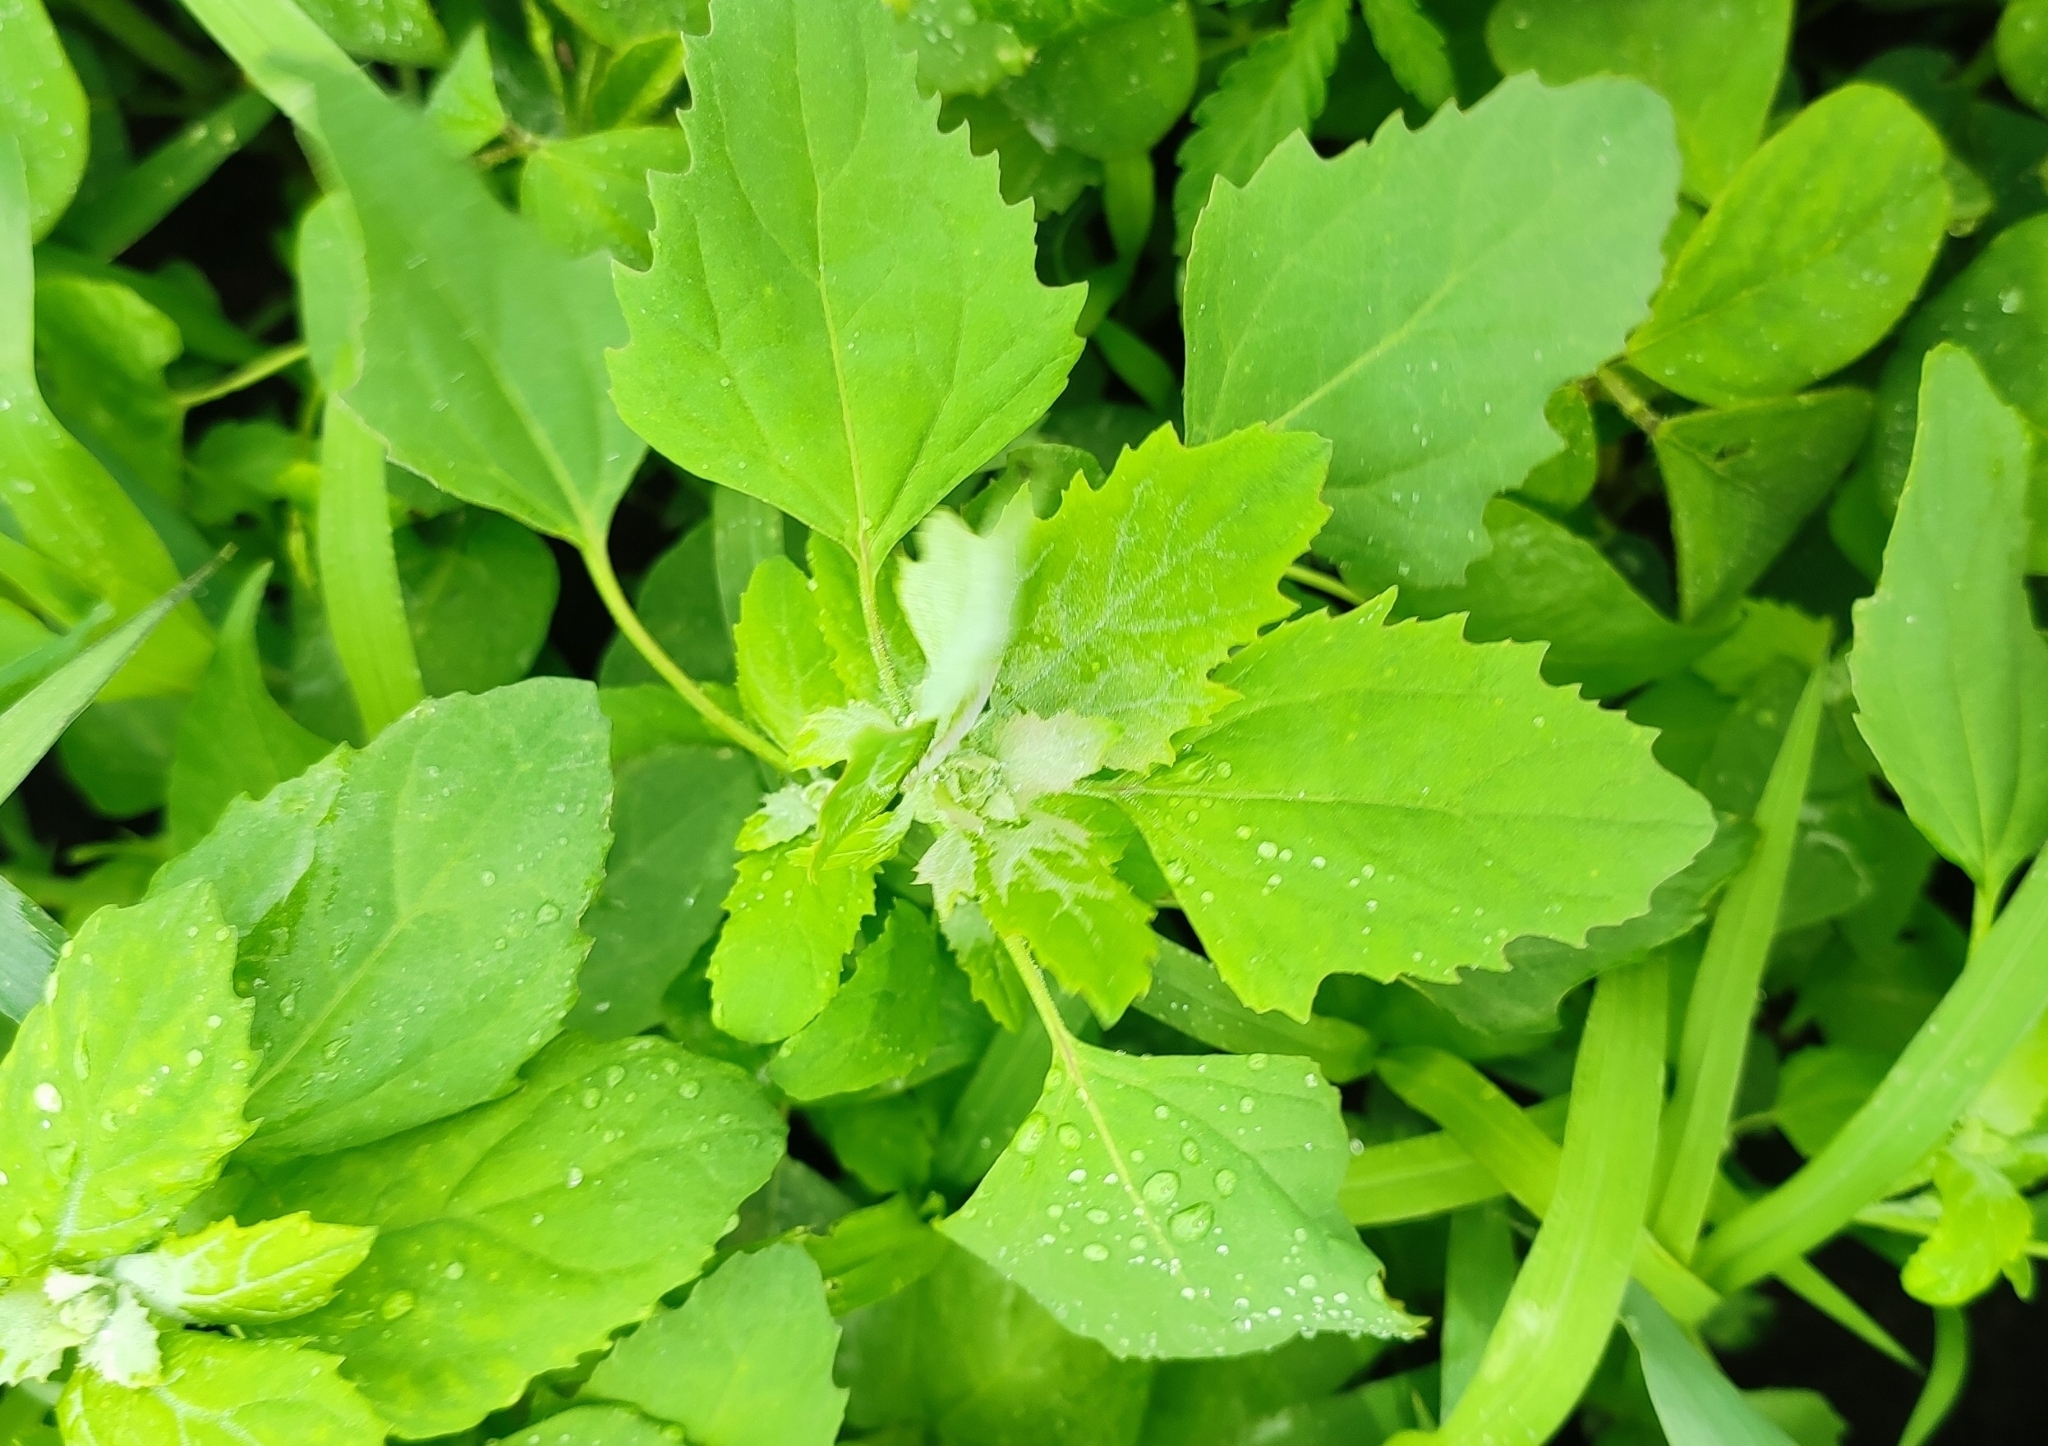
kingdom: Plantae
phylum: Tracheophyta
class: Magnoliopsida
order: Caryophyllales
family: Amaranthaceae
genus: Chenopodium
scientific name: Chenopodium album
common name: Fat-hen
